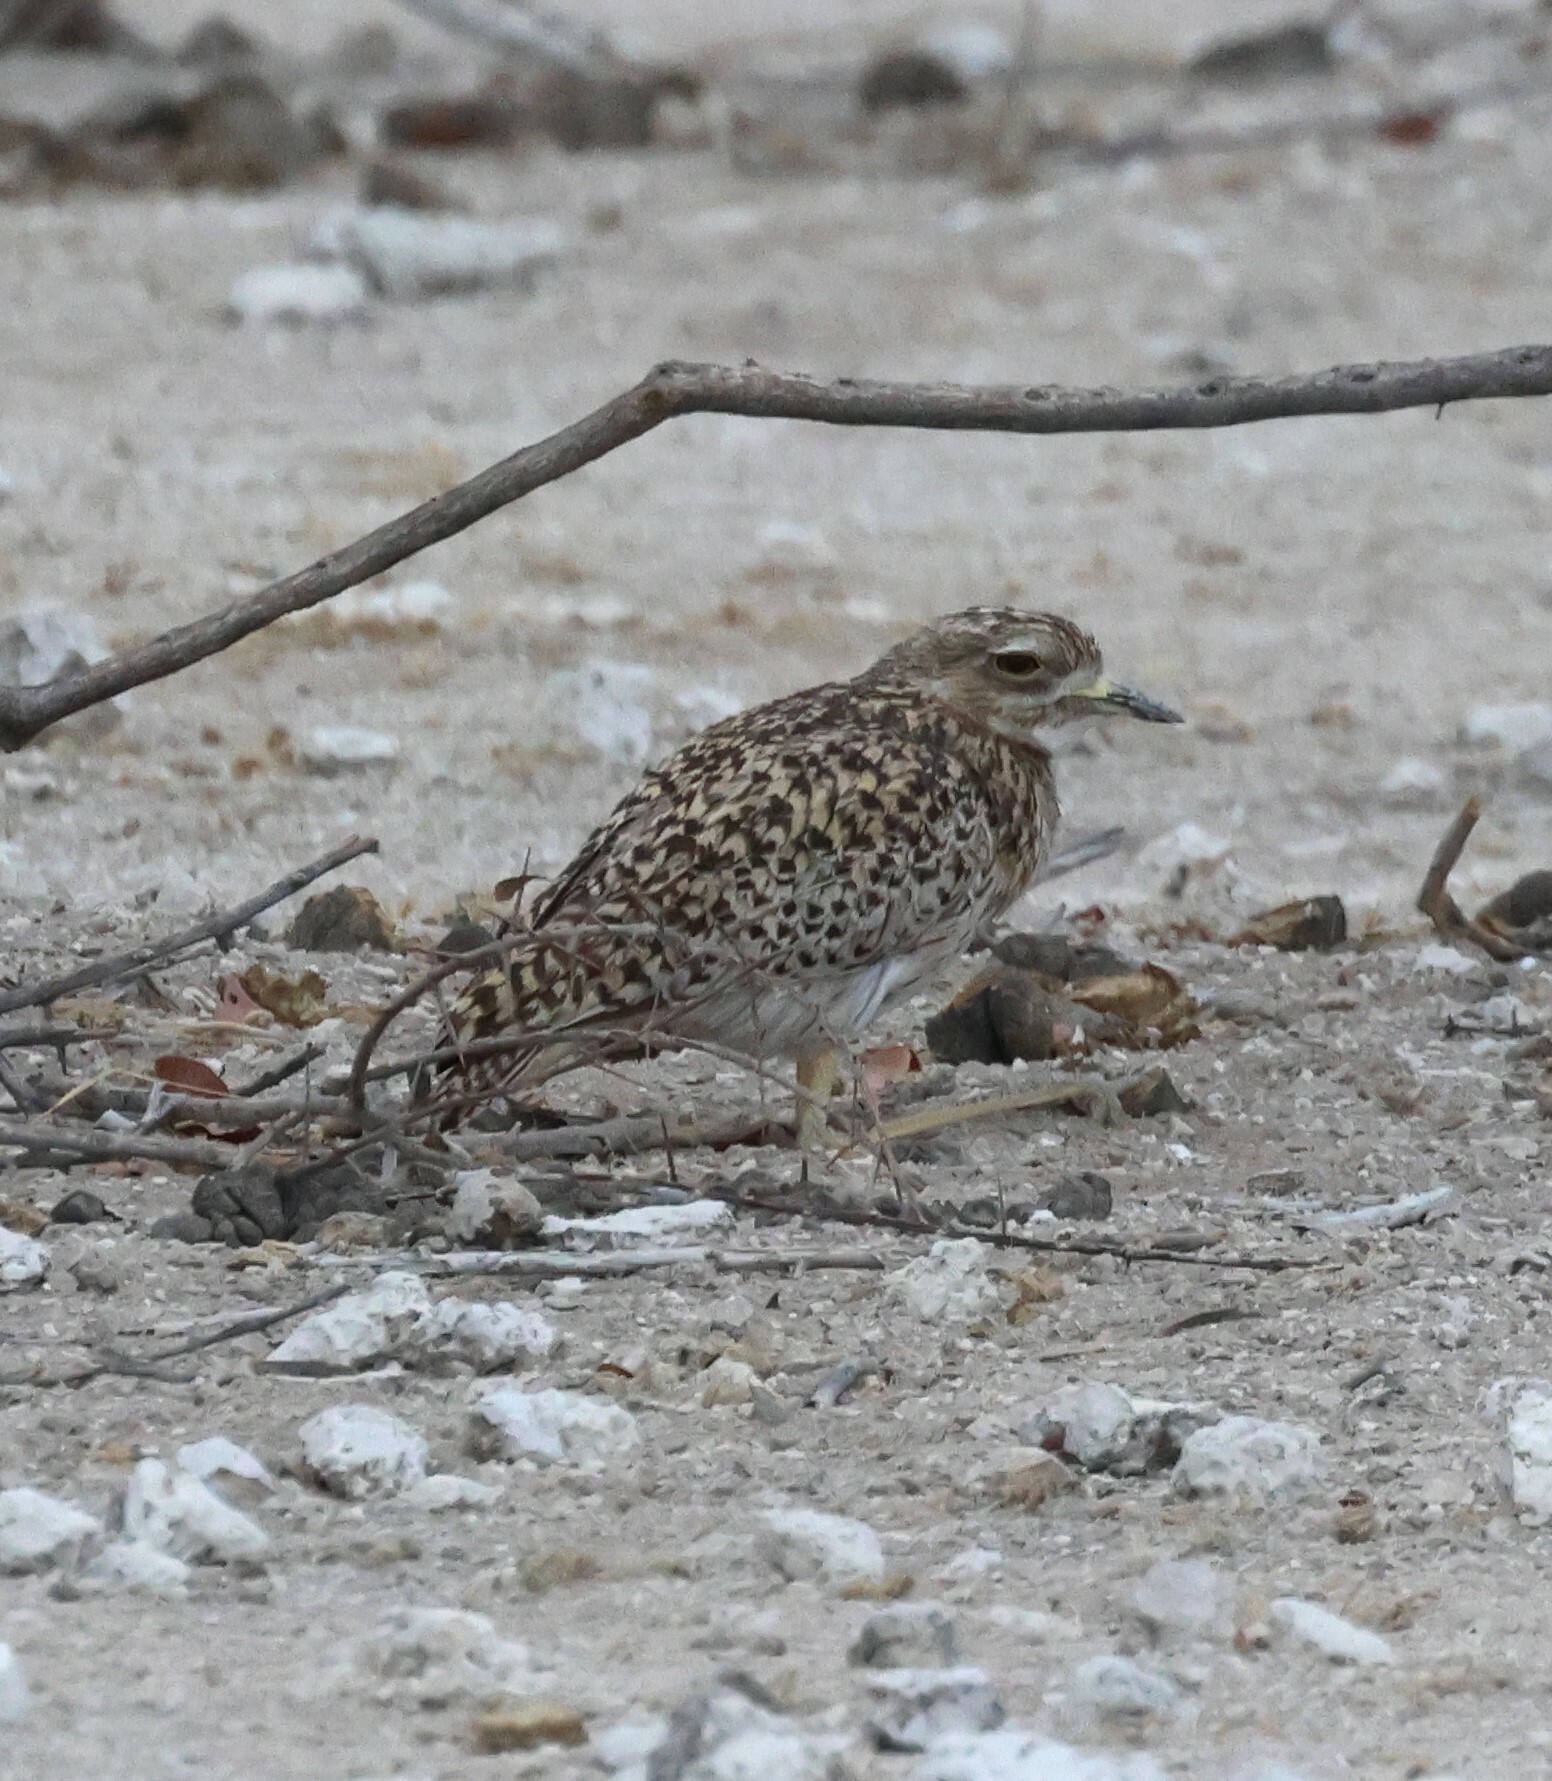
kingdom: Animalia
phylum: Chordata
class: Aves
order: Charadriiformes
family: Burhinidae
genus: Burhinus
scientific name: Burhinus capensis
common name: Spotted thick-knee
